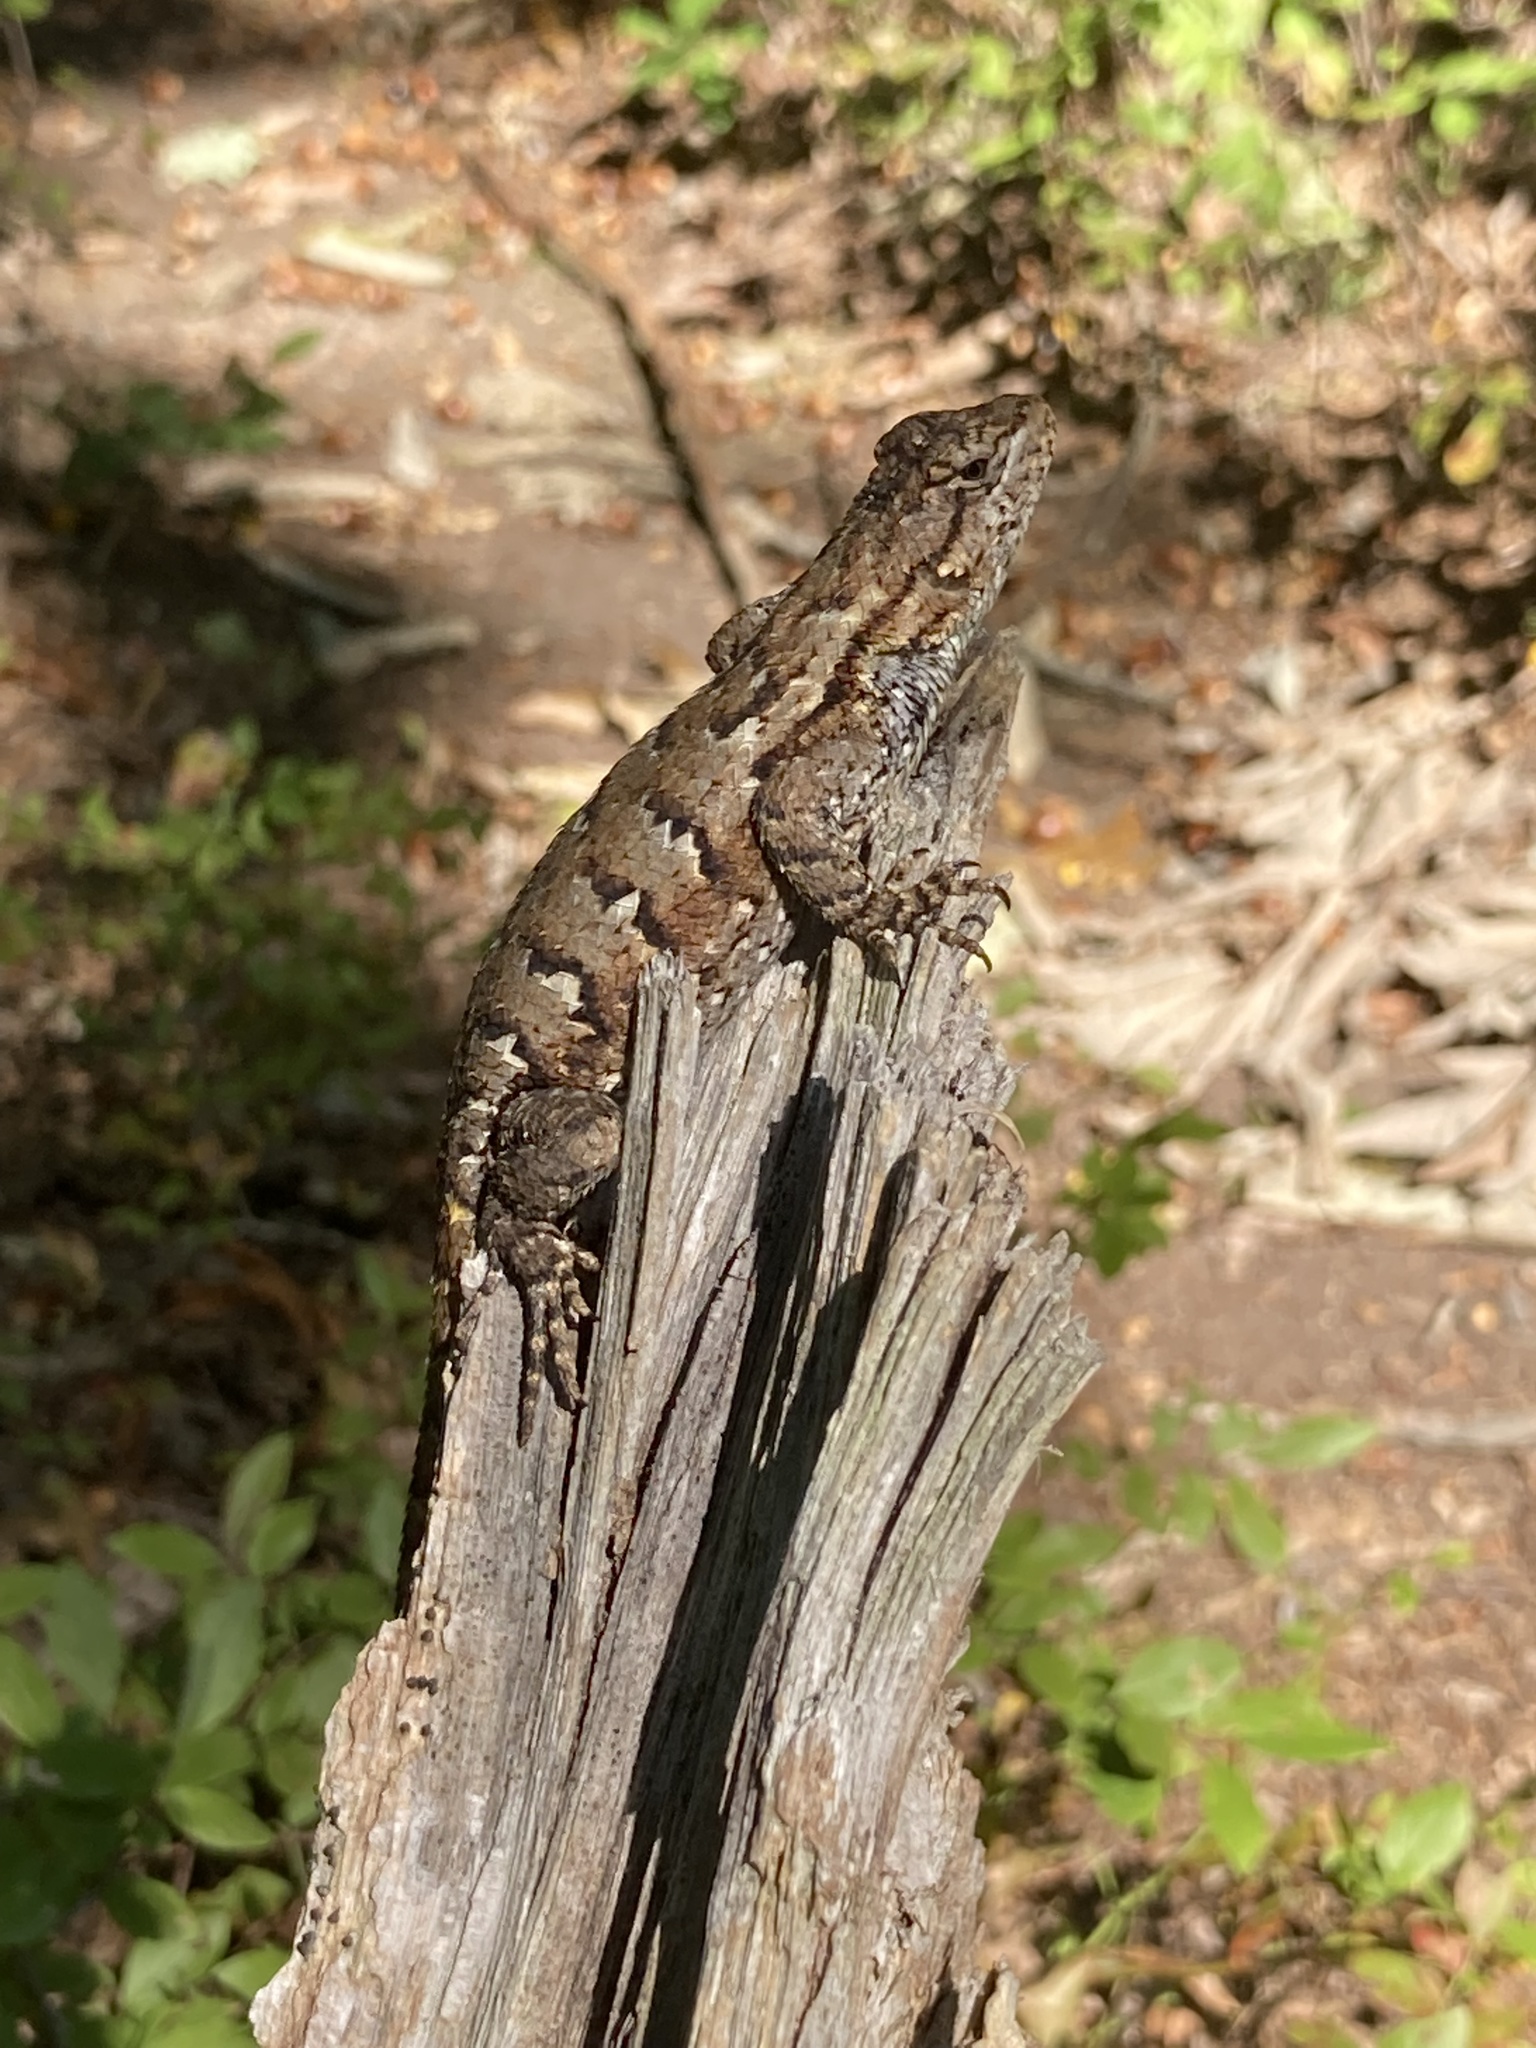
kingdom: Animalia
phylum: Chordata
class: Squamata
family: Phrynosomatidae
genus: Sceloporus
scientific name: Sceloporus undulatus
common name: Eastern fence lizard
